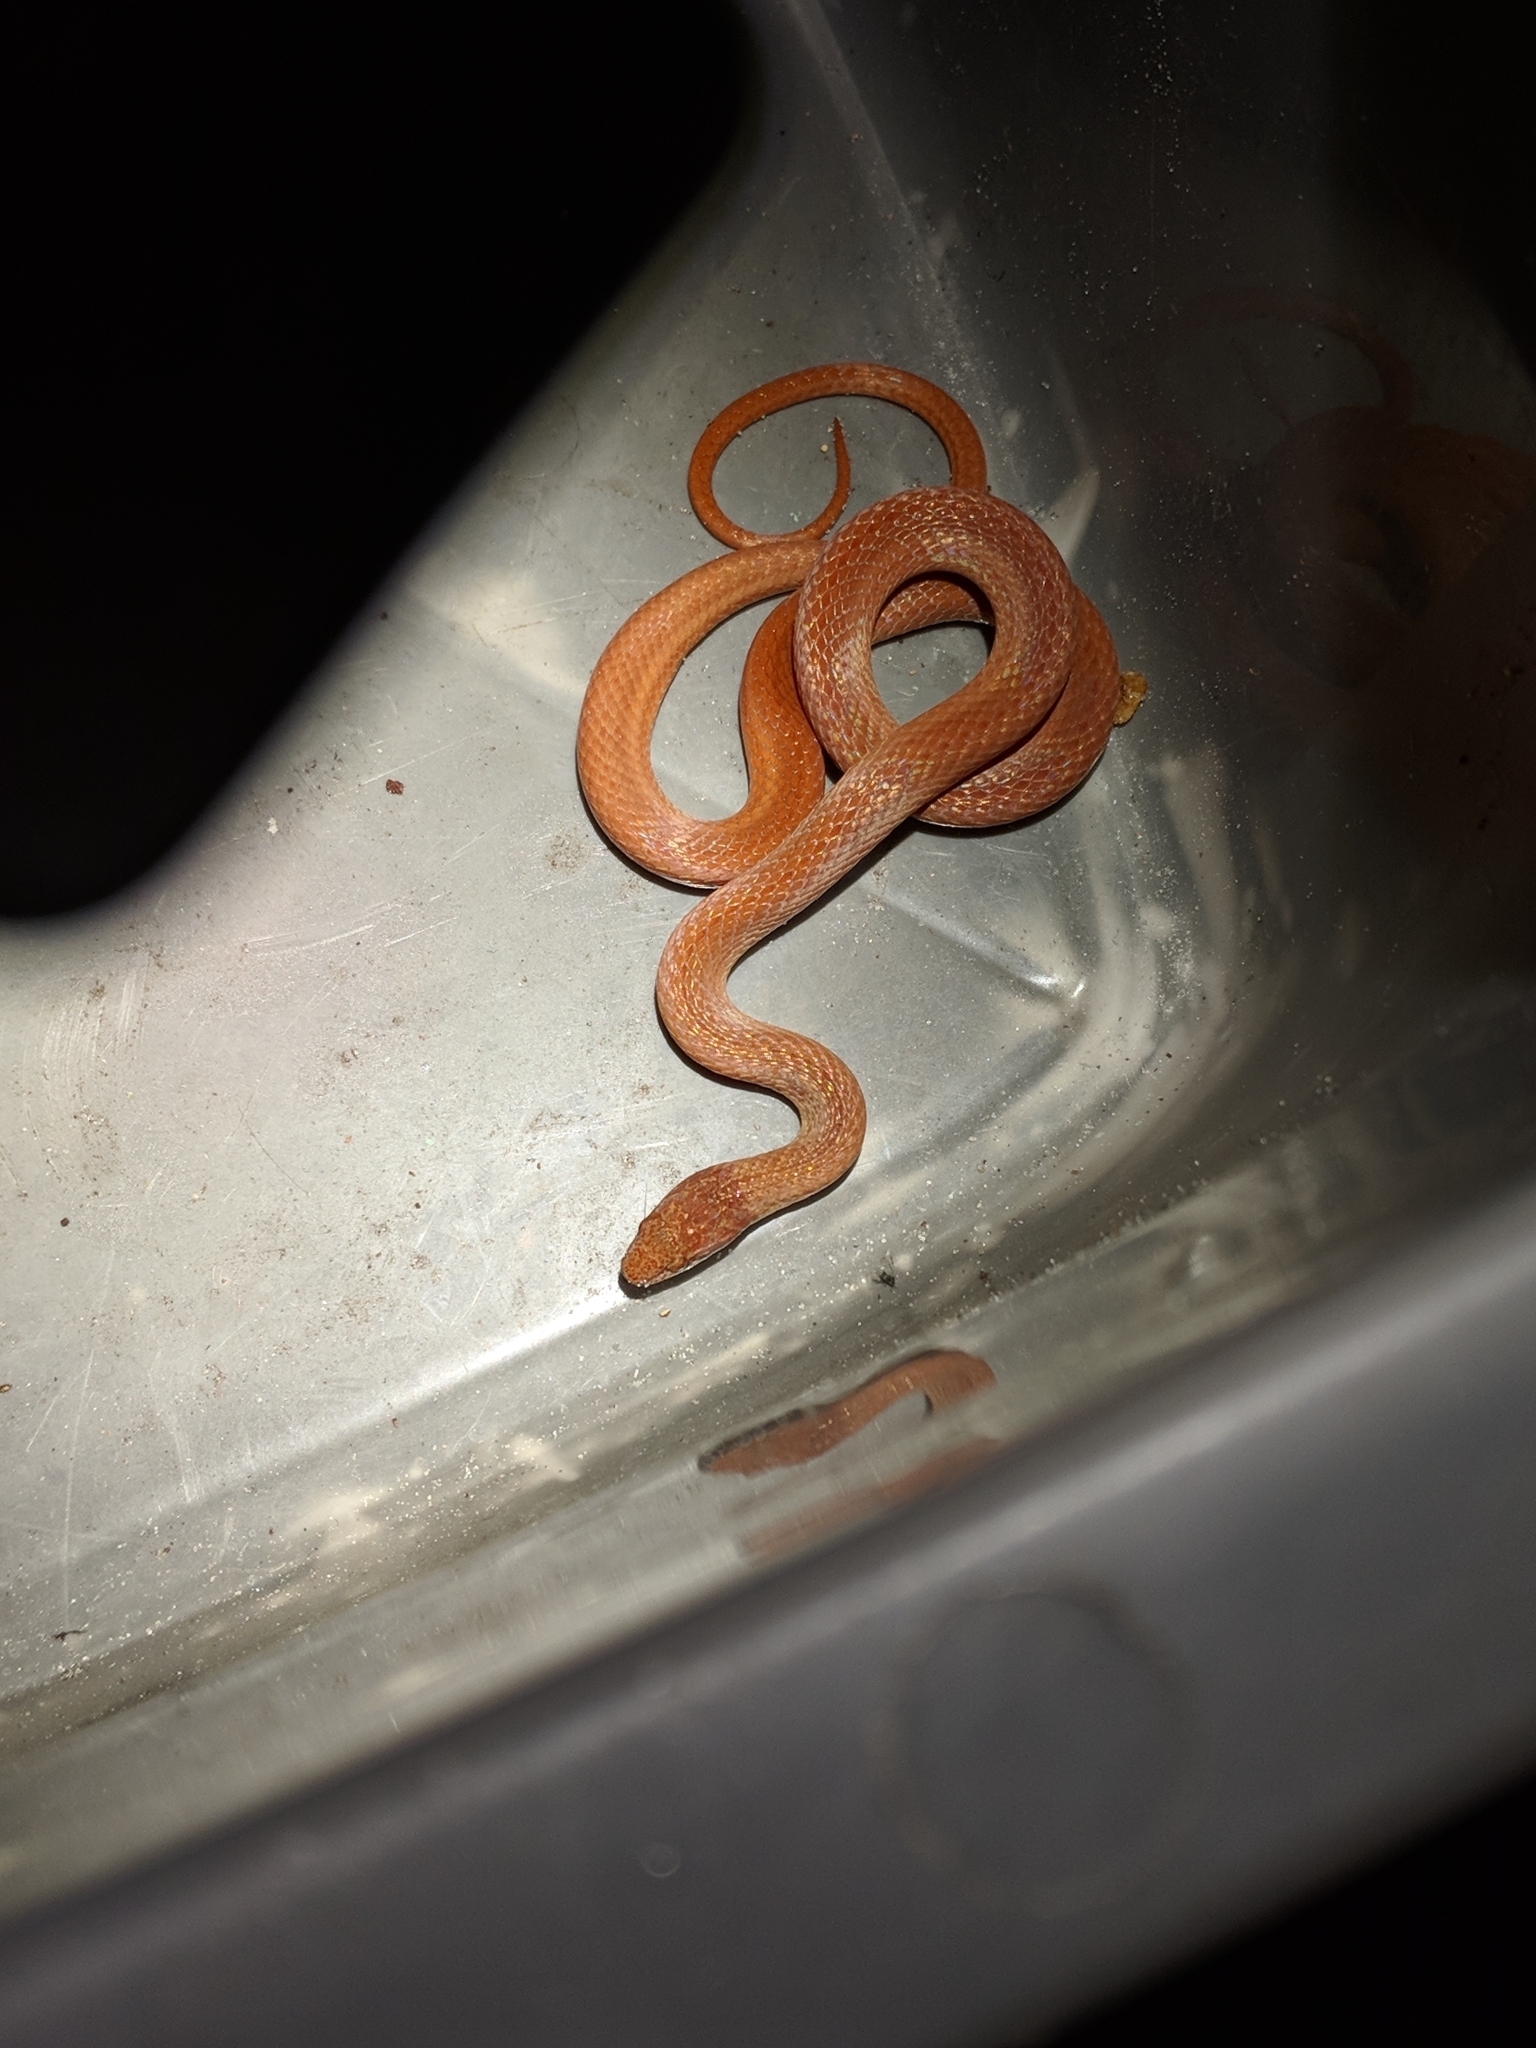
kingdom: Animalia
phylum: Chordata
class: Squamata
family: Colubridae
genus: Rhadinaea
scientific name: Rhadinaea flavilata
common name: Pine woods littersnake
